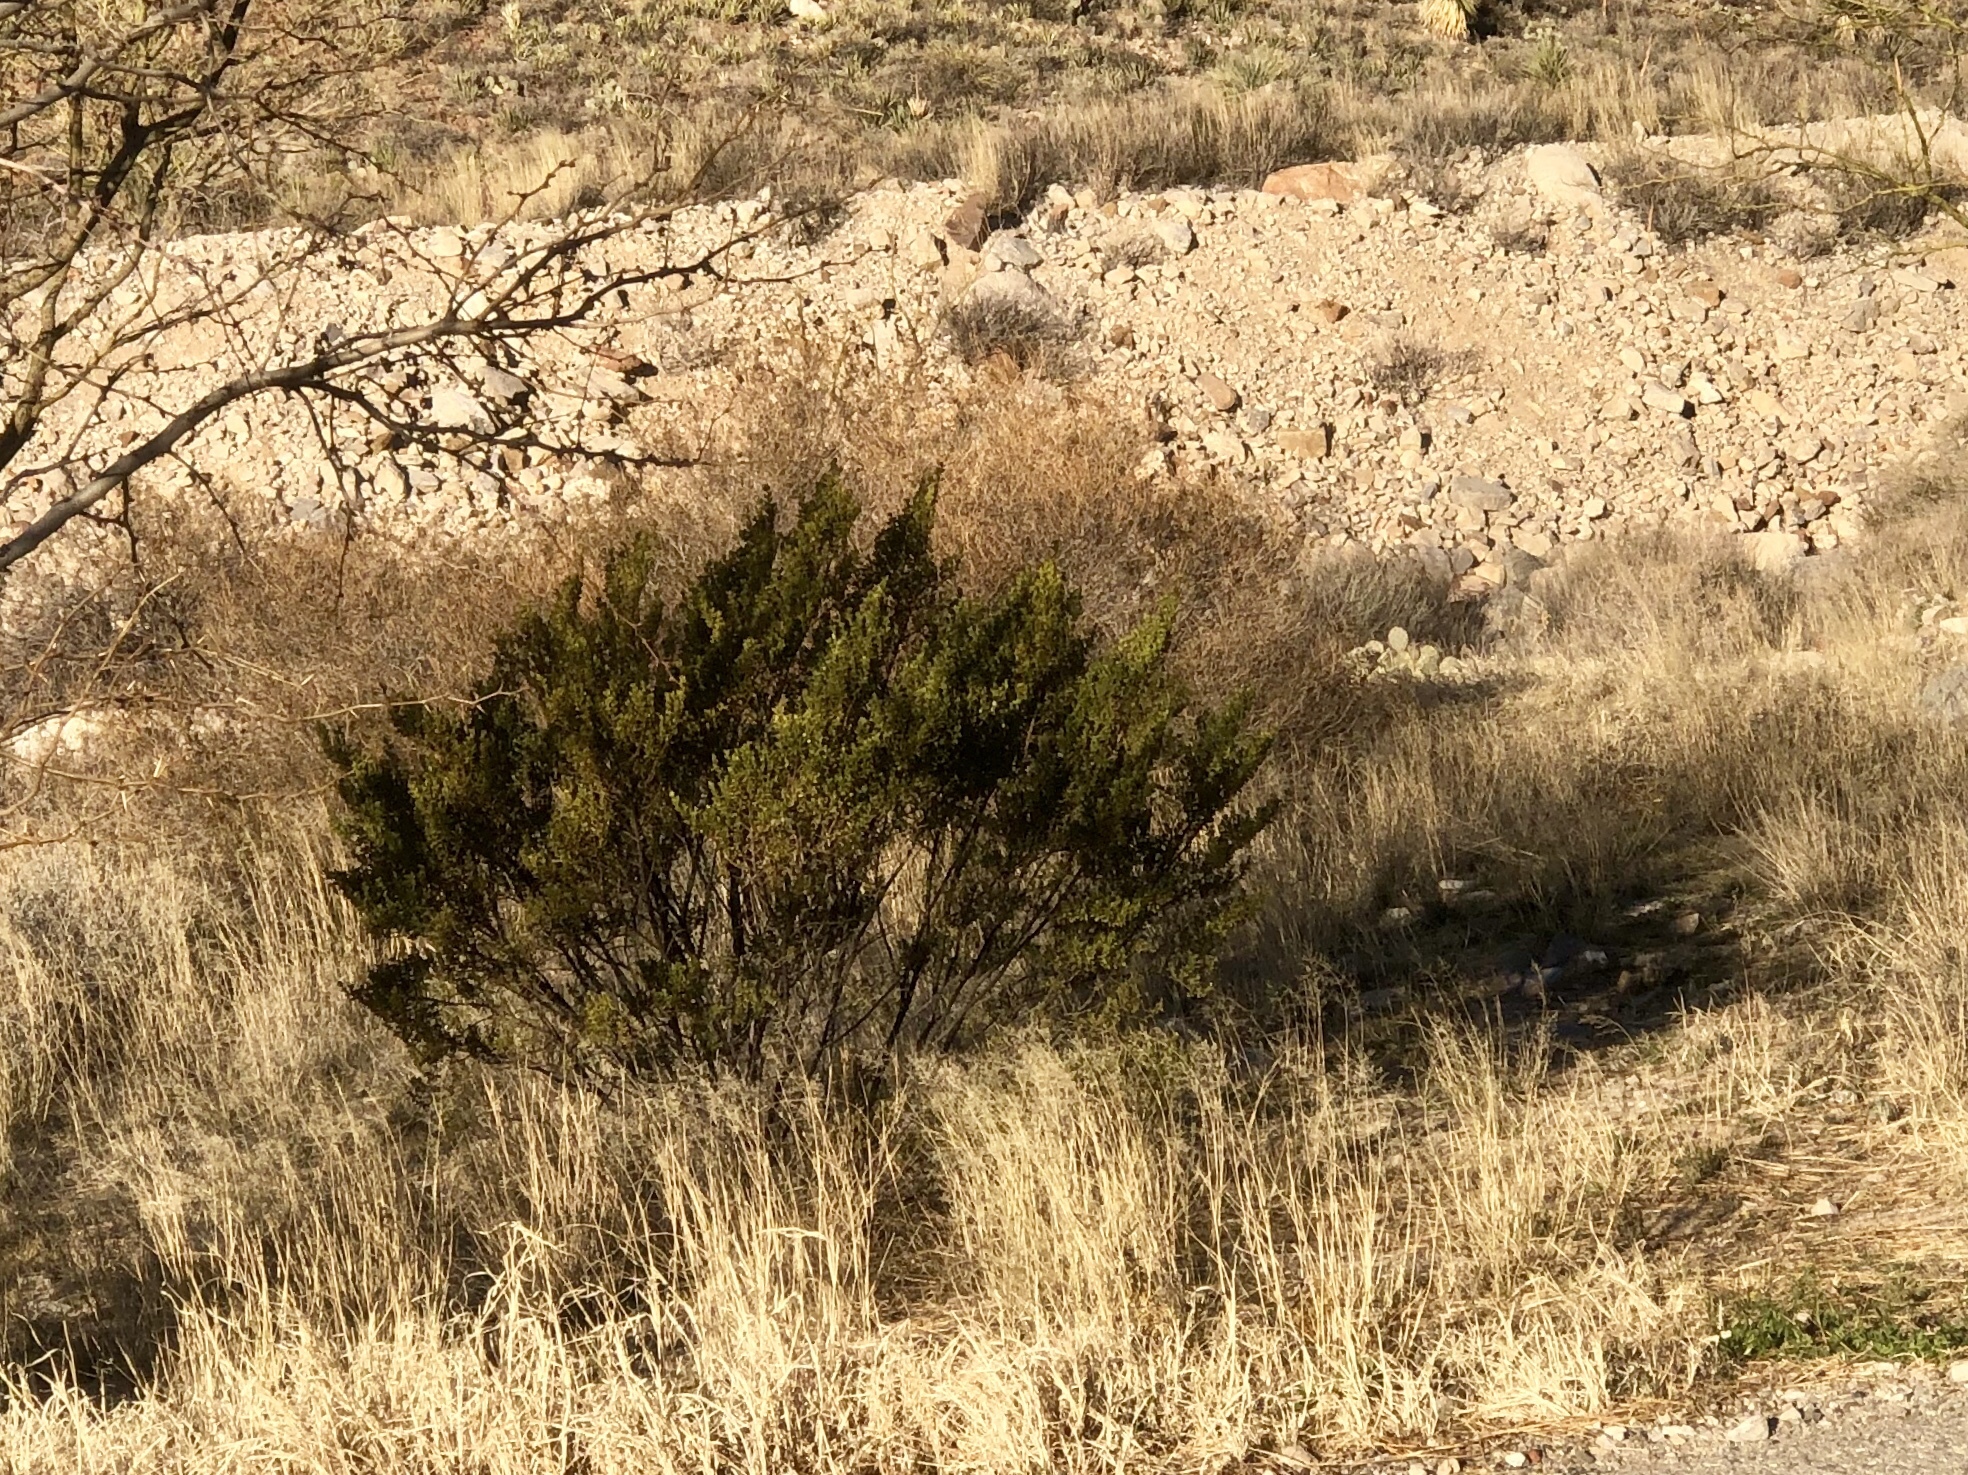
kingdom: Plantae
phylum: Tracheophyta
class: Magnoliopsida
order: Zygophyllales
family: Zygophyllaceae
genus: Larrea
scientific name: Larrea tridentata
